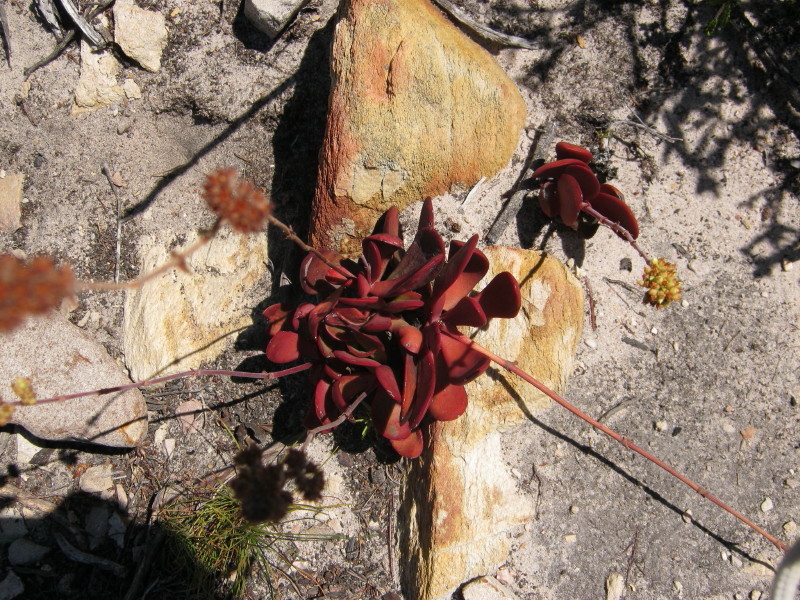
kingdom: Plantae
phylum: Tracheophyta
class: Magnoliopsida
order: Saxifragales
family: Crassulaceae
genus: Crassula
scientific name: Crassula atropurpurea
